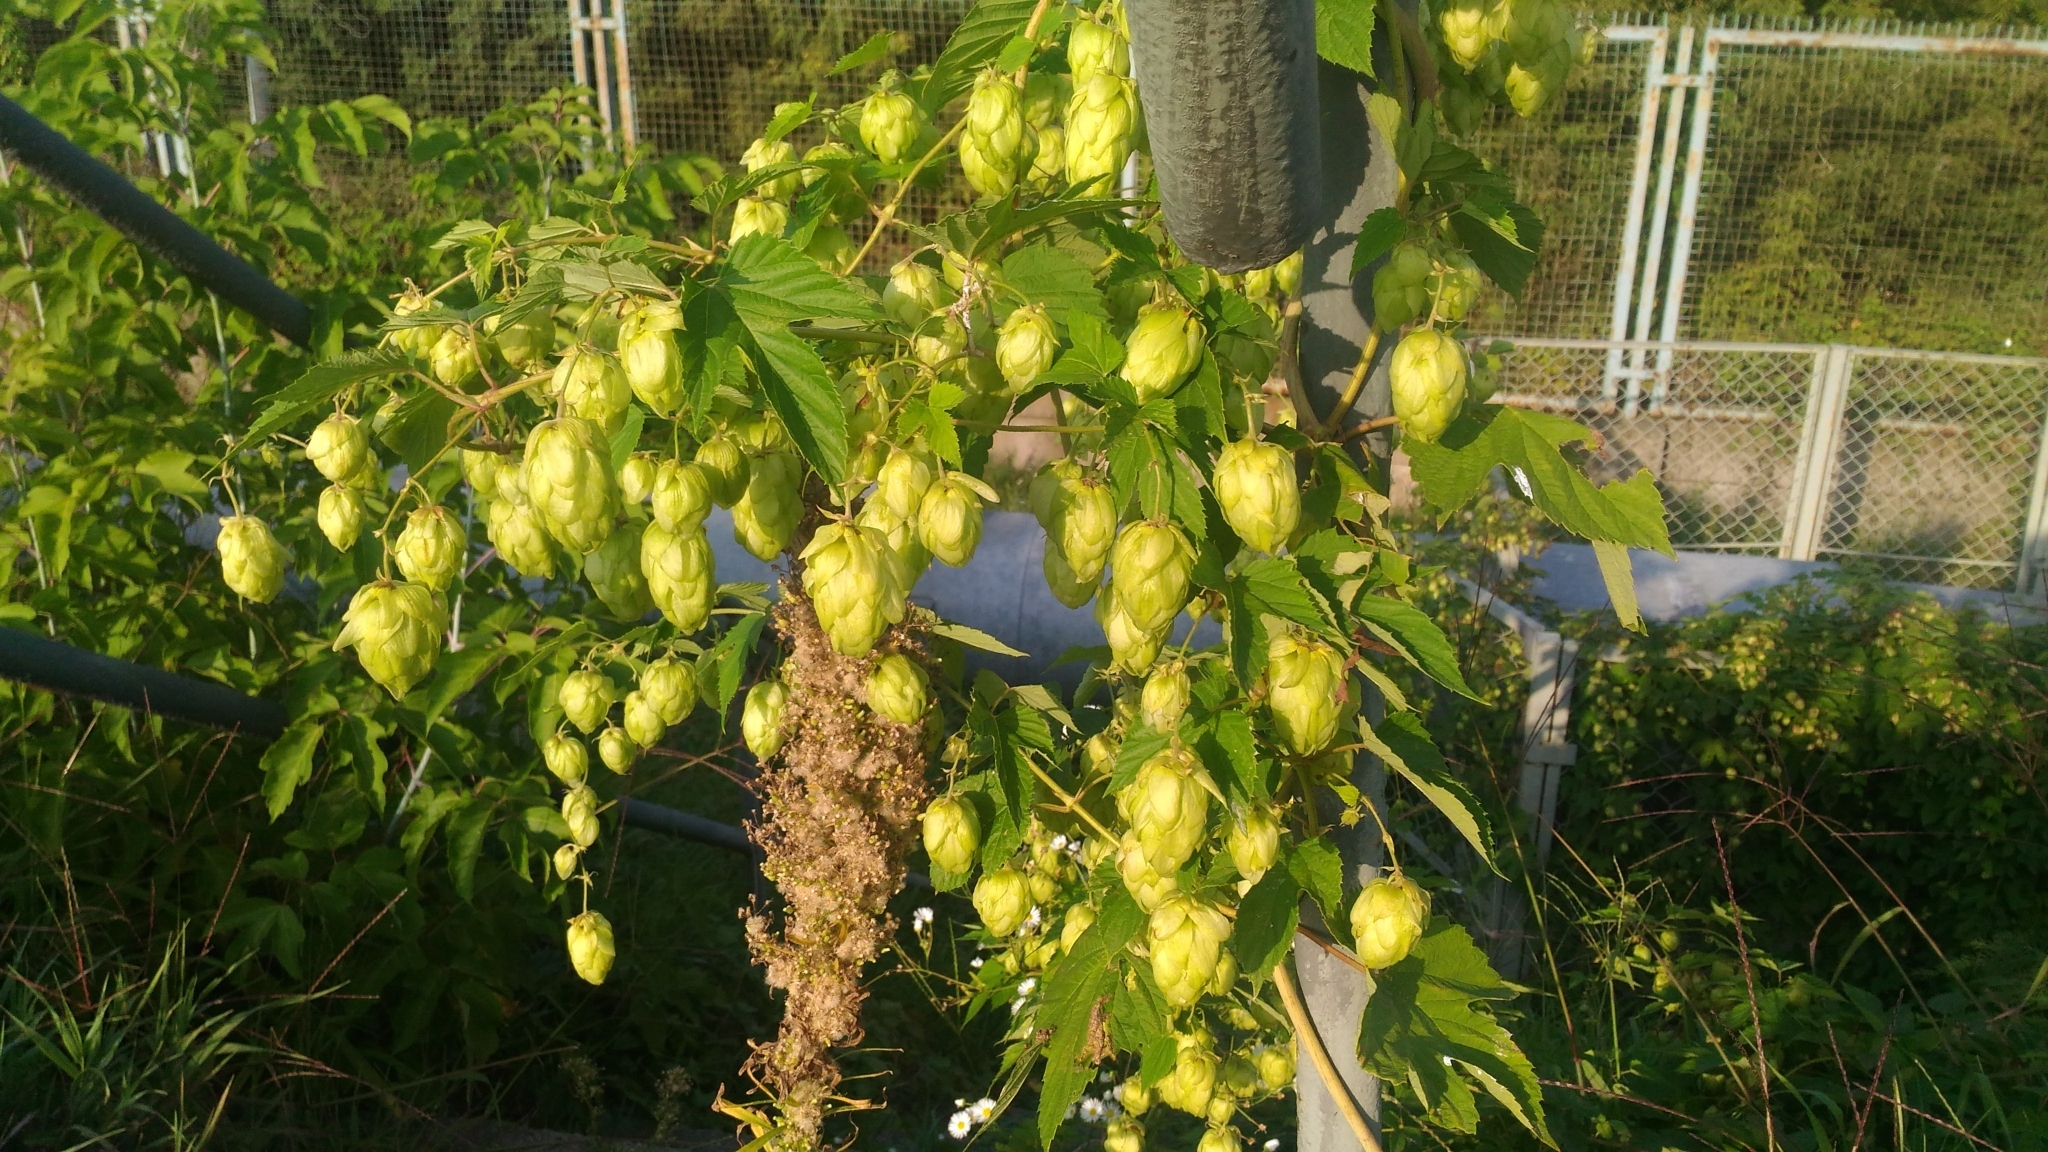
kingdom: Plantae
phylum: Tracheophyta
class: Magnoliopsida
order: Rosales
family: Cannabaceae
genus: Humulus
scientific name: Humulus lupulus
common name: Hop
